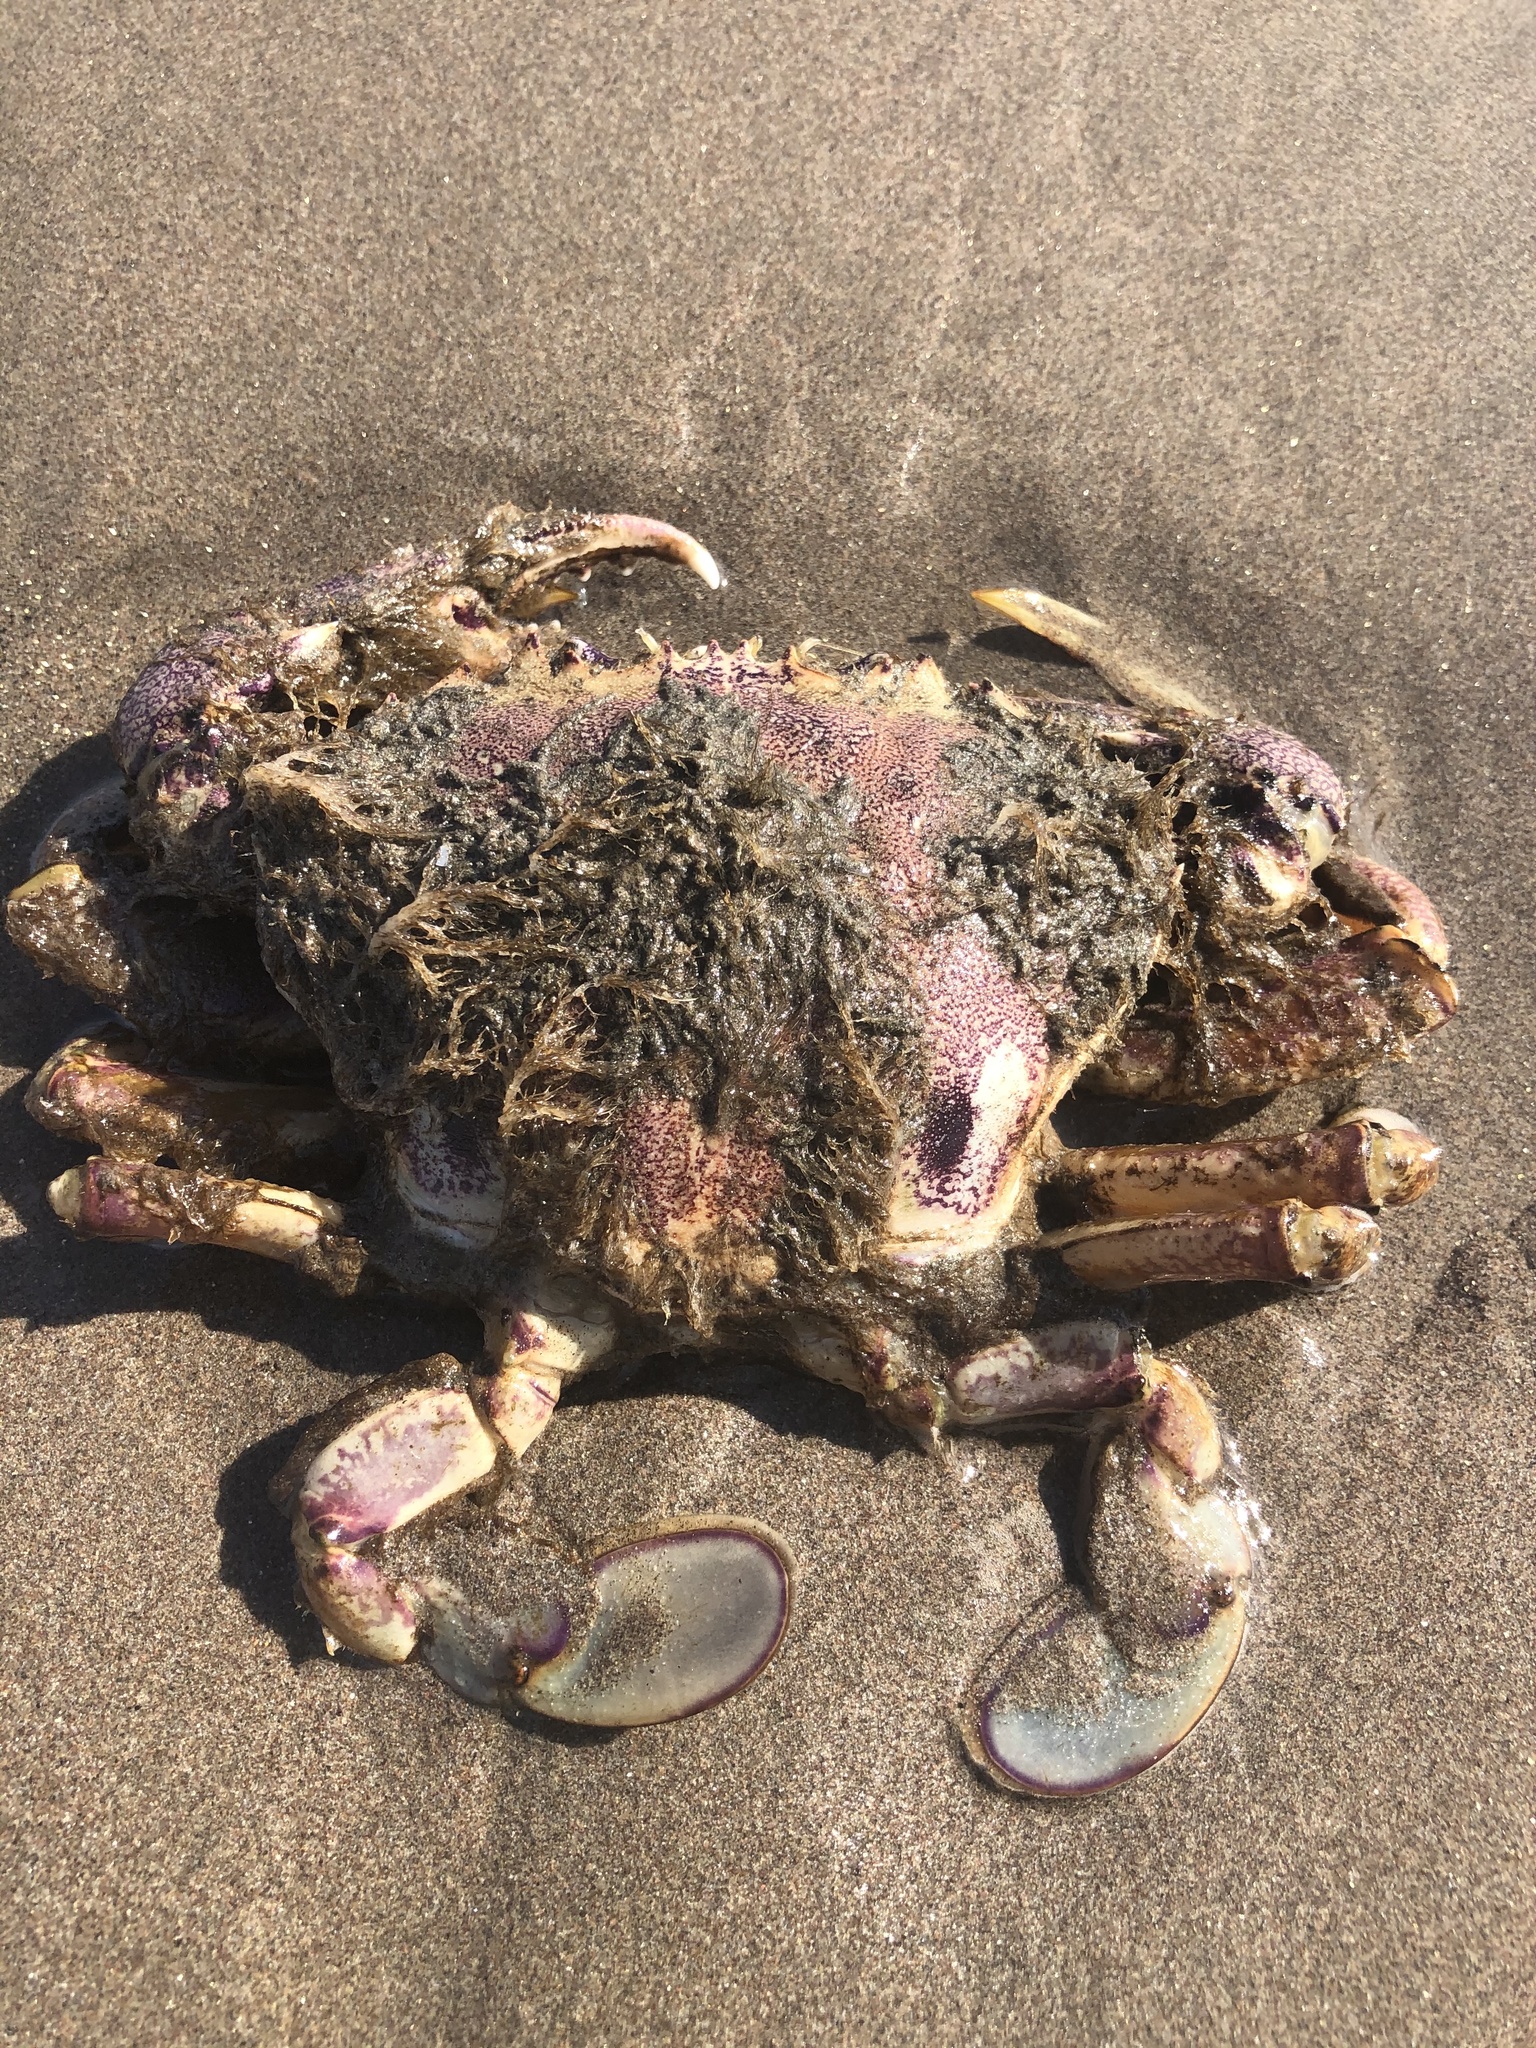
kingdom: Animalia
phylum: Arthropoda
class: Malacostraca
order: Decapoda
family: Ovalipidae
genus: Ovalipes
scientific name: Ovalipes trimaculatus
